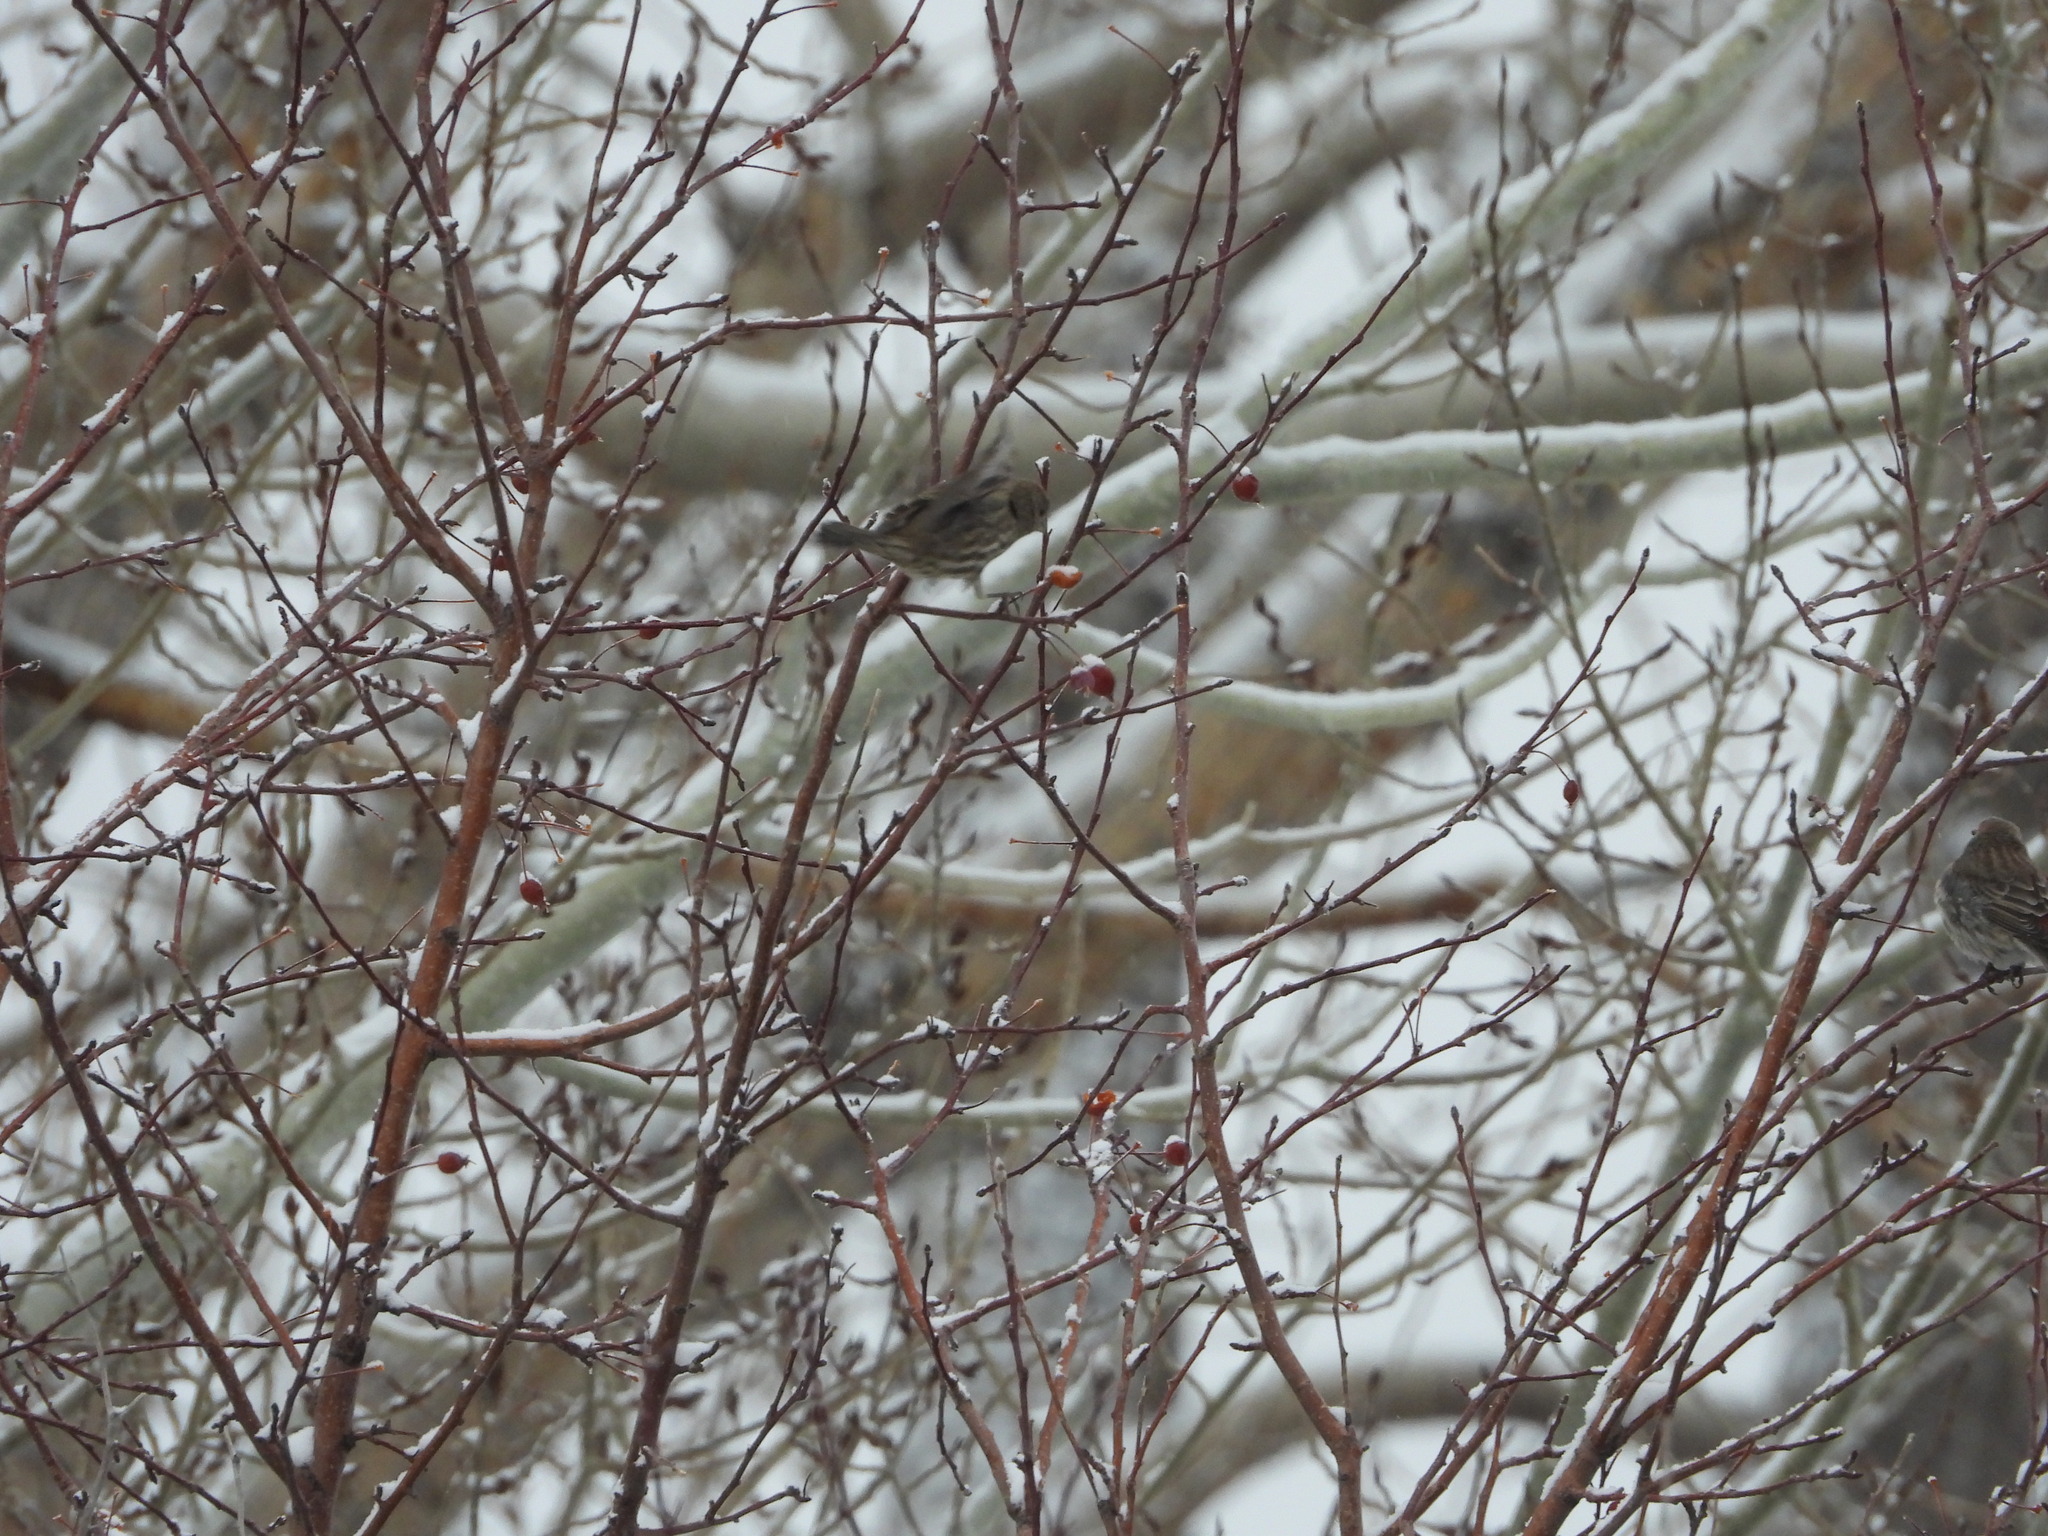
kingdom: Animalia
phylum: Chordata
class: Aves
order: Passeriformes
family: Fringillidae
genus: Haemorhous
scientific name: Haemorhous mexicanus
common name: House finch
